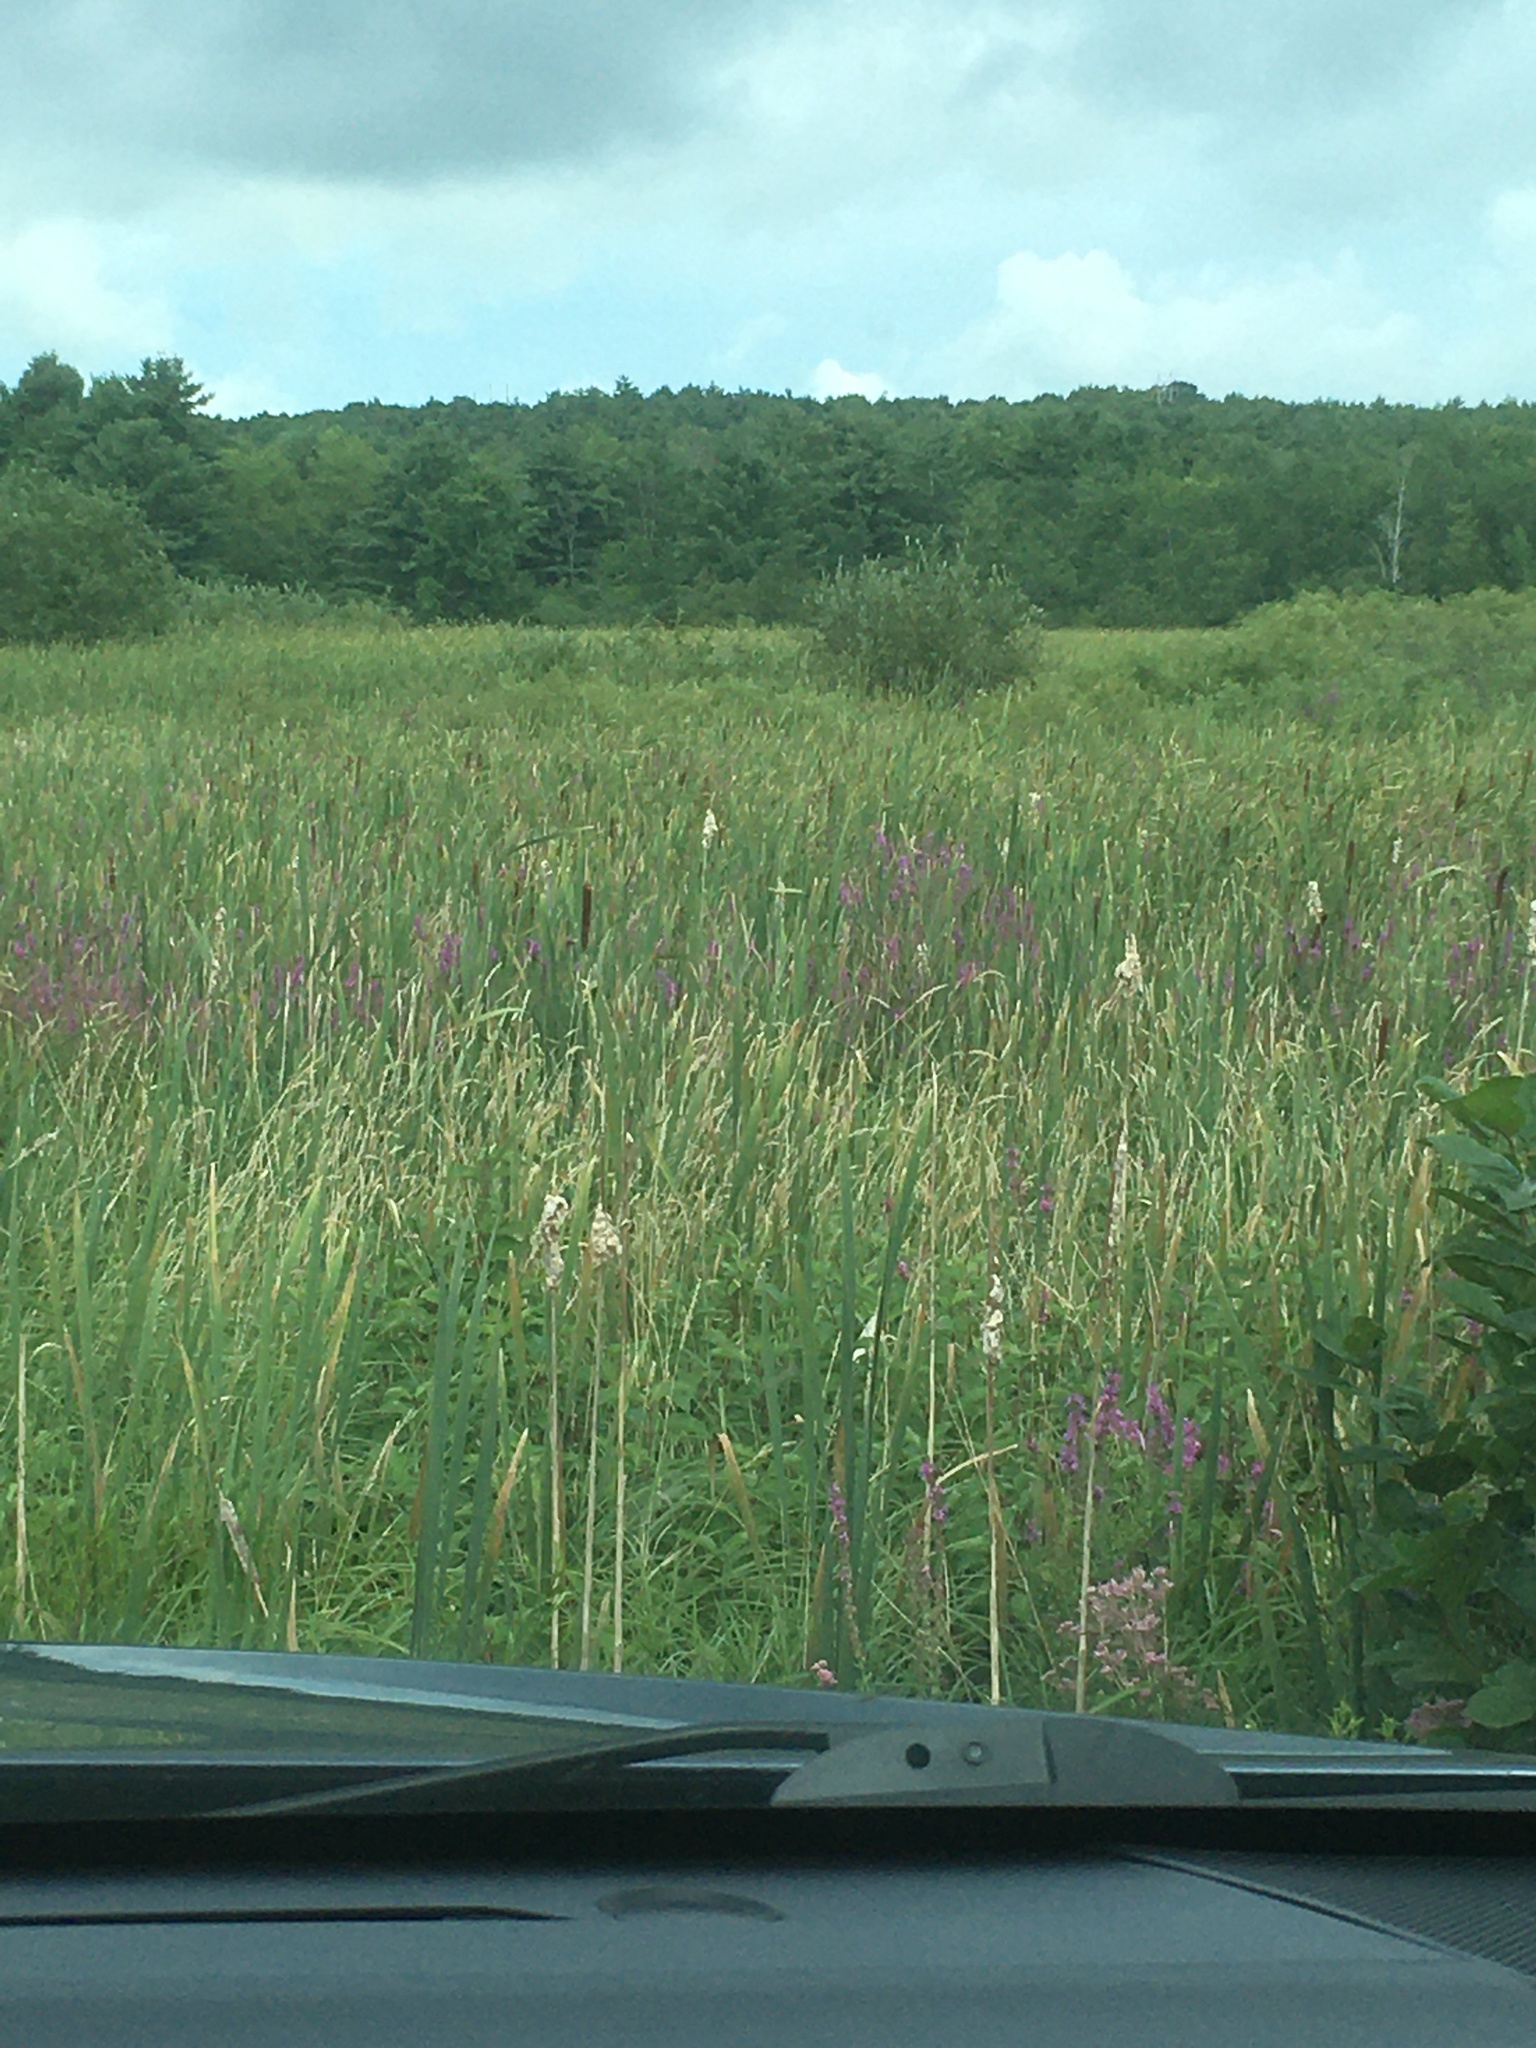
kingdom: Plantae
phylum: Tracheophyta
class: Magnoliopsida
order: Myrtales
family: Lythraceae
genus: Lythrum
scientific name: Lythrum salicaria
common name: Purple loosestrife
